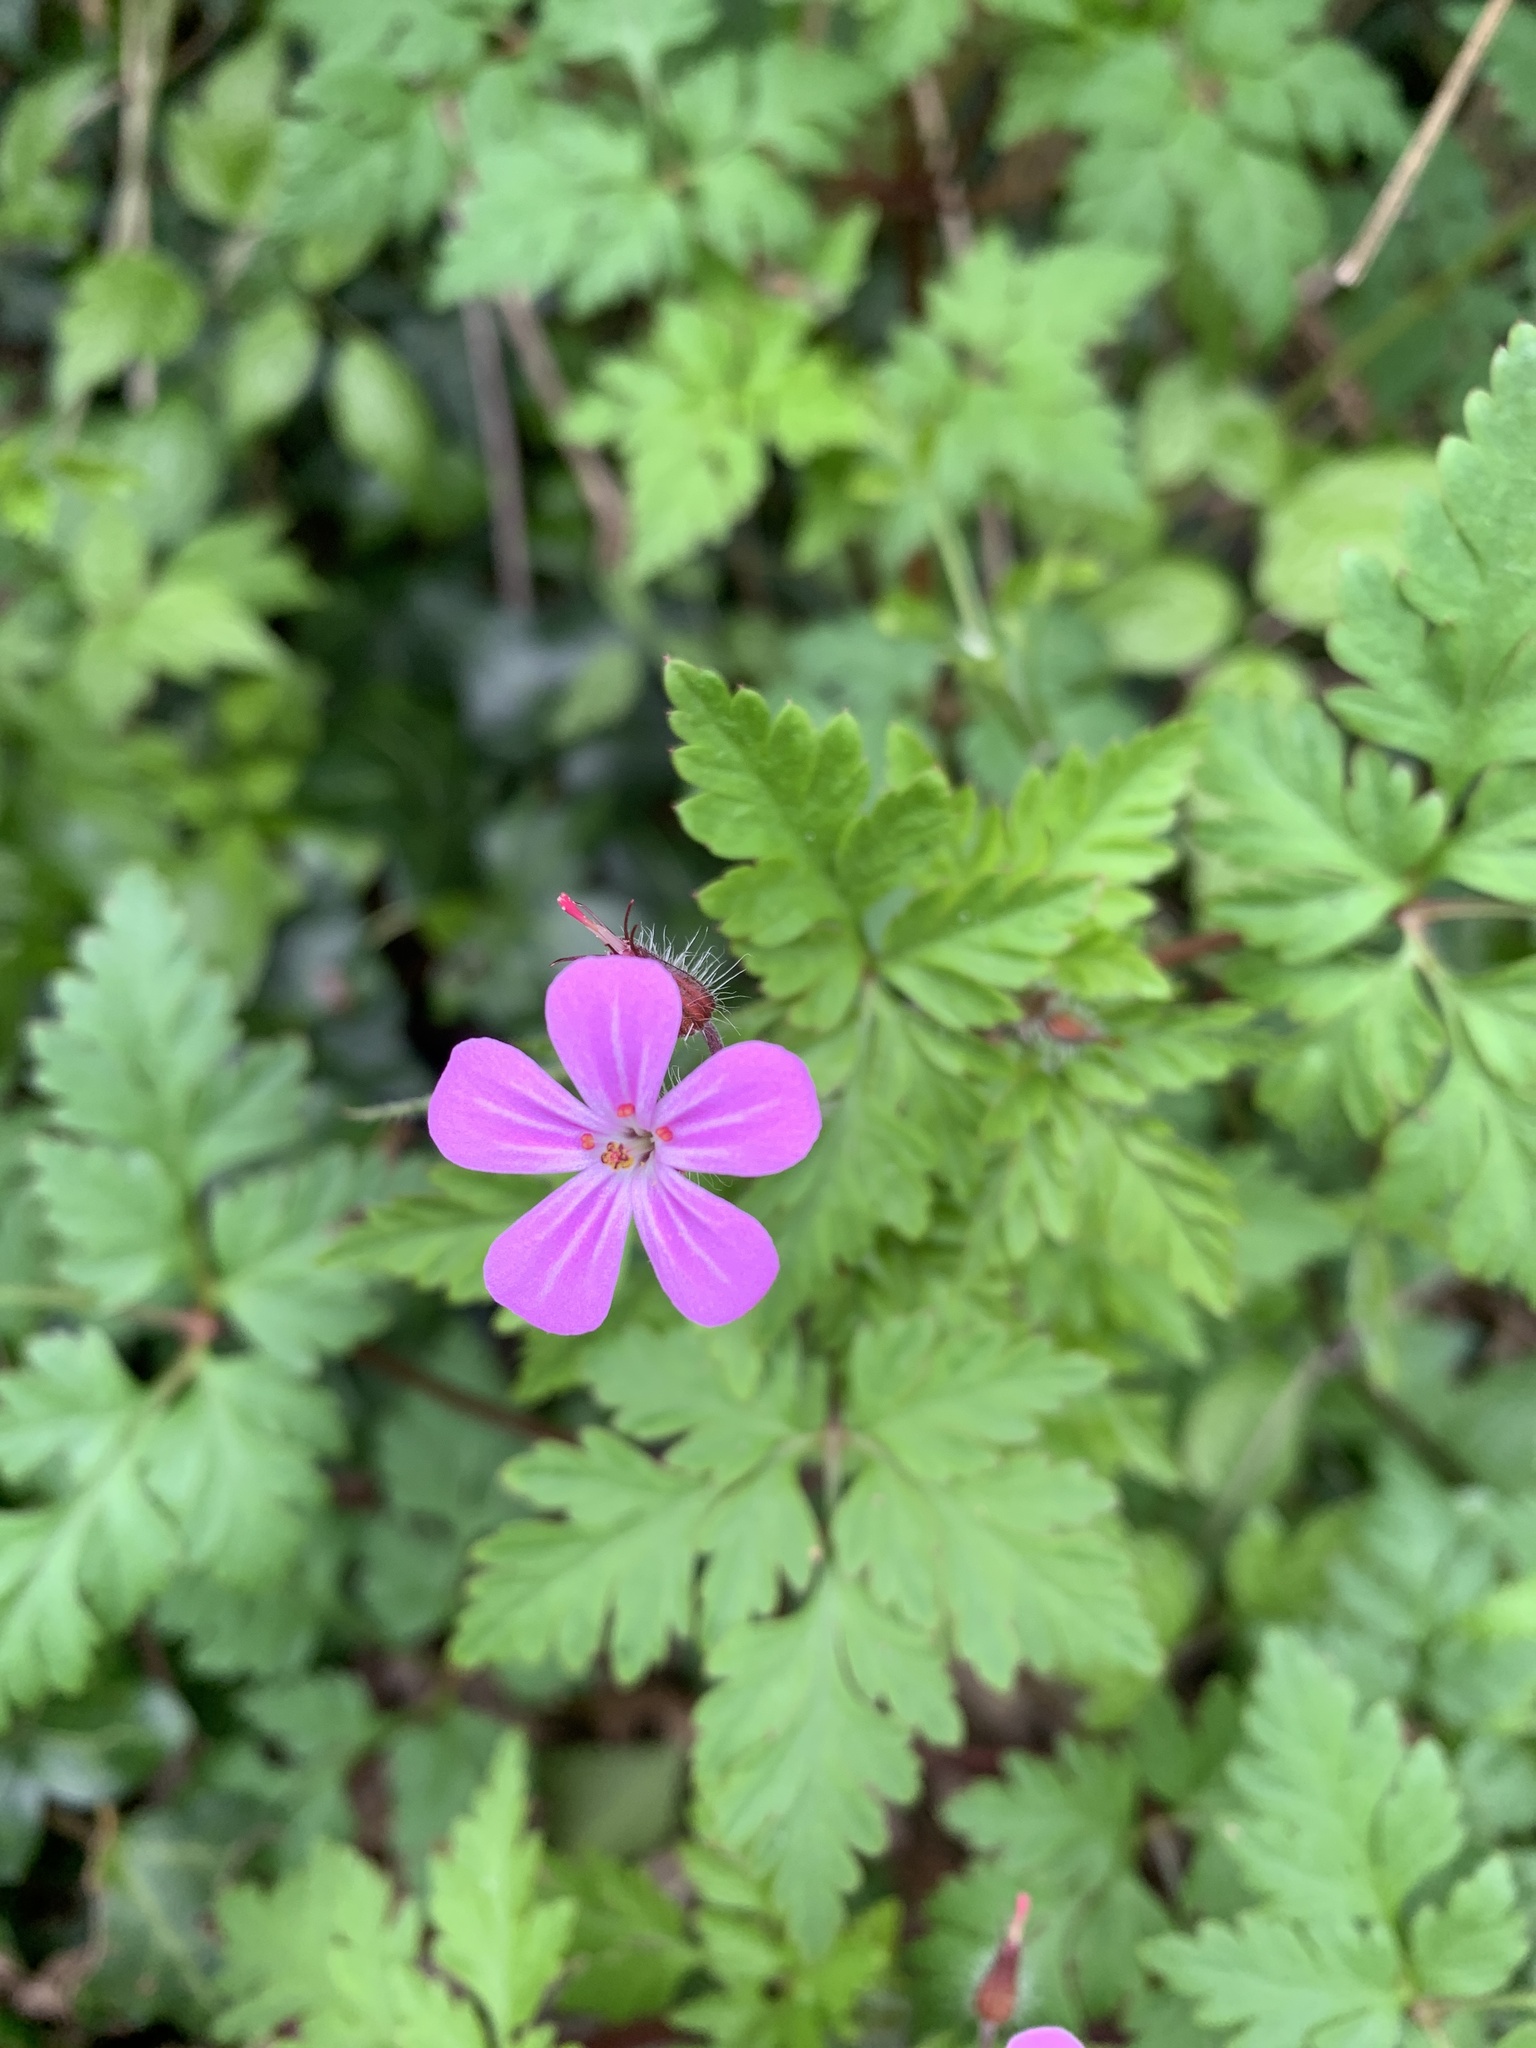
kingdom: Plantae
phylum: Tracheophyta
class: Magnoliopsida
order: Geraniales
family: Geraniaceae
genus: Geranium
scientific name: Geranium robertianum
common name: Herb-robert
